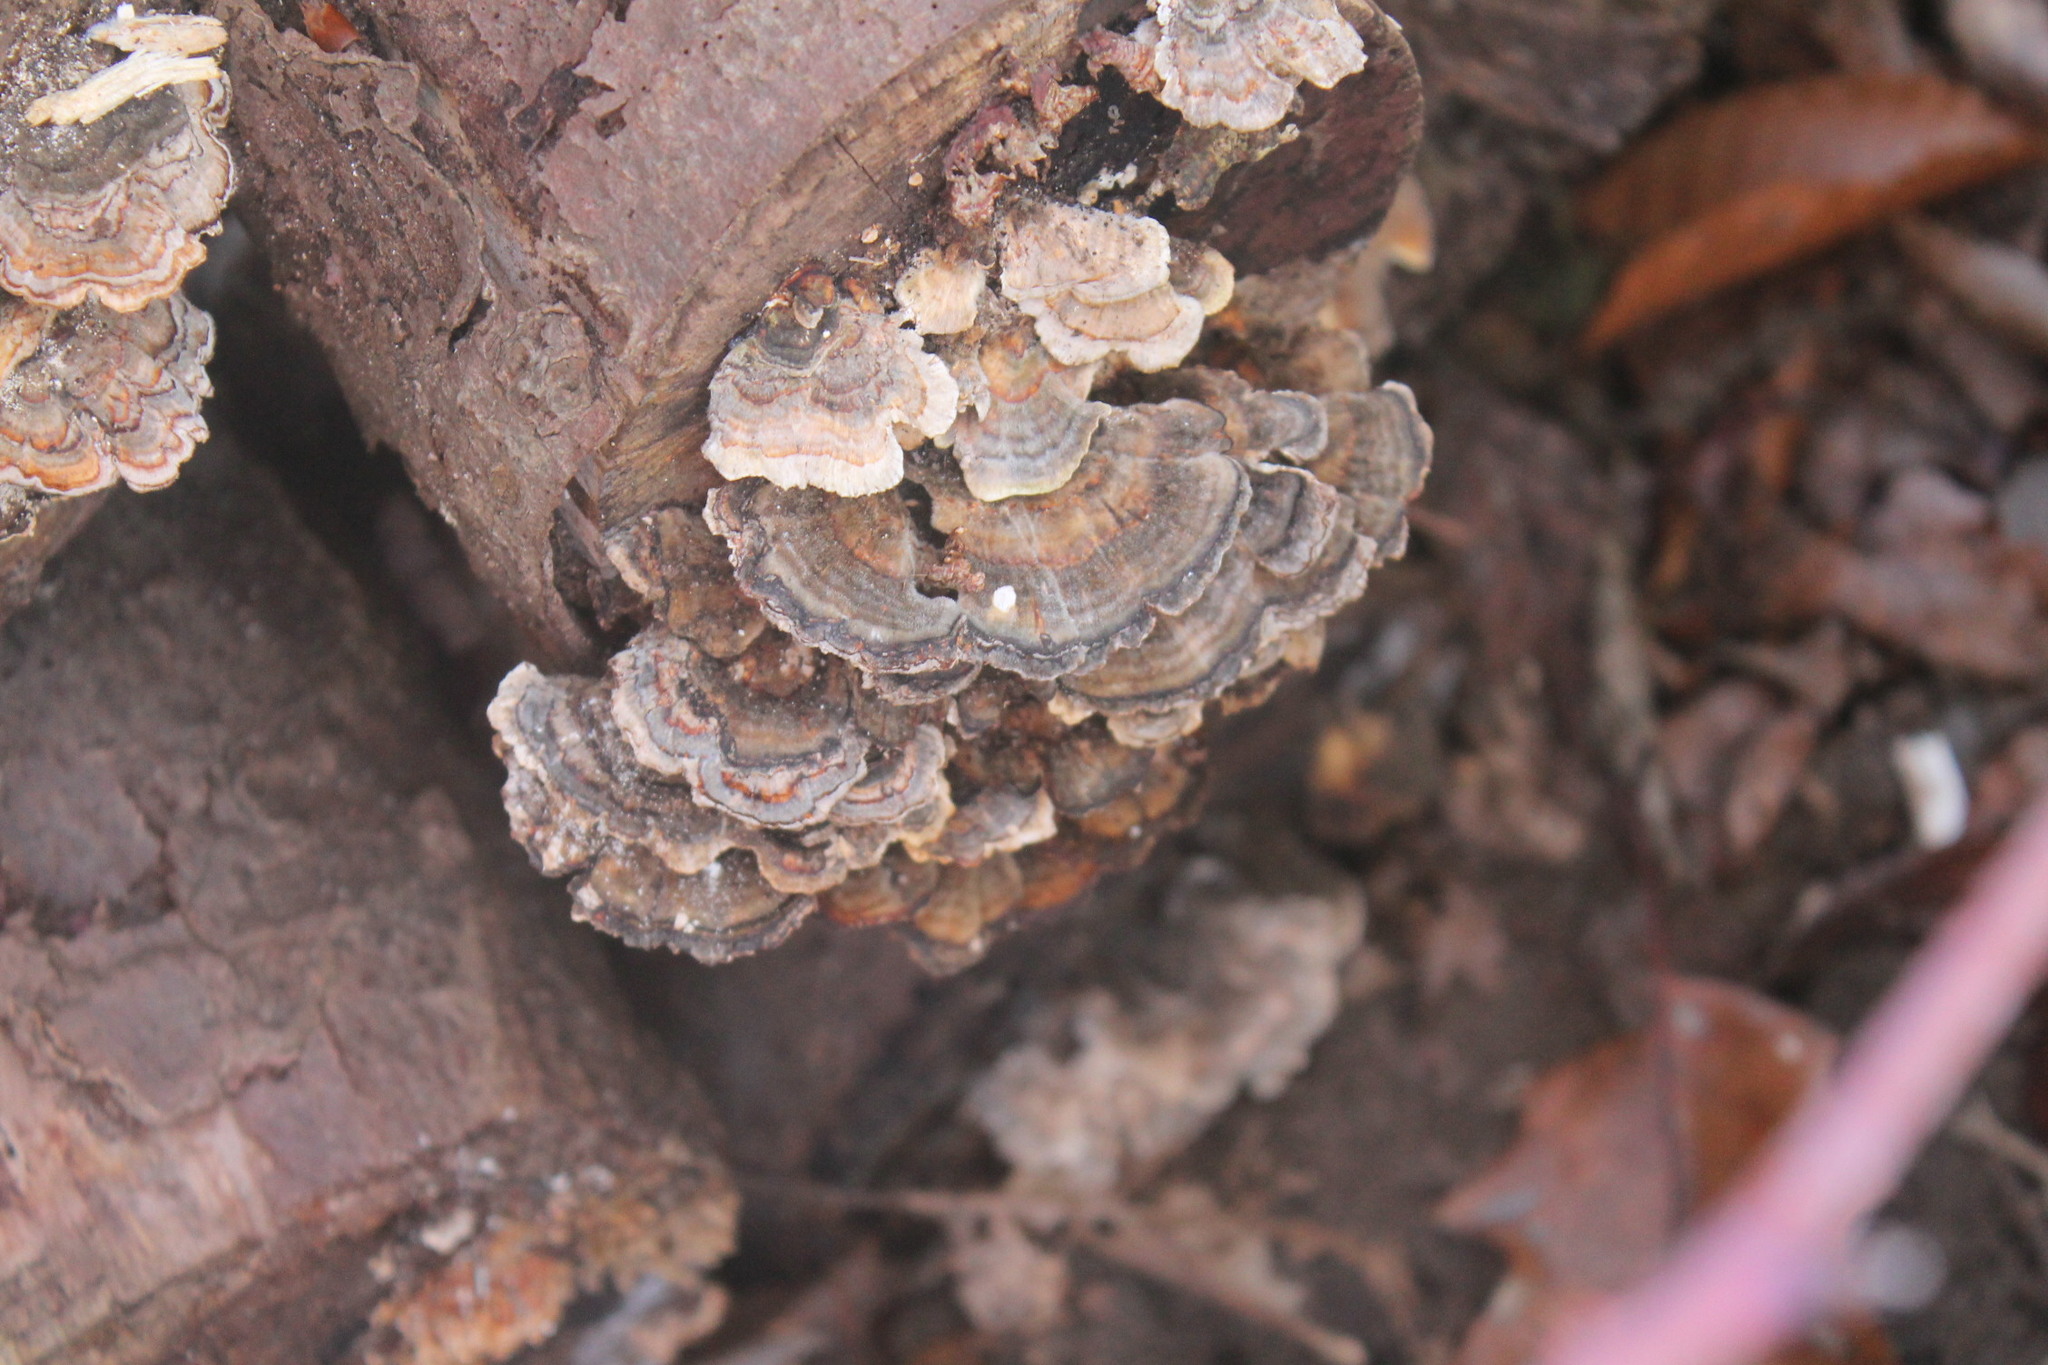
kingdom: Fungi
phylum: Basidiomycota
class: Agaricomycetes
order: Polyporales
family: Polyporaceae
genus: Trametes
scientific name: Trametes versicolor
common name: Turkeytail
